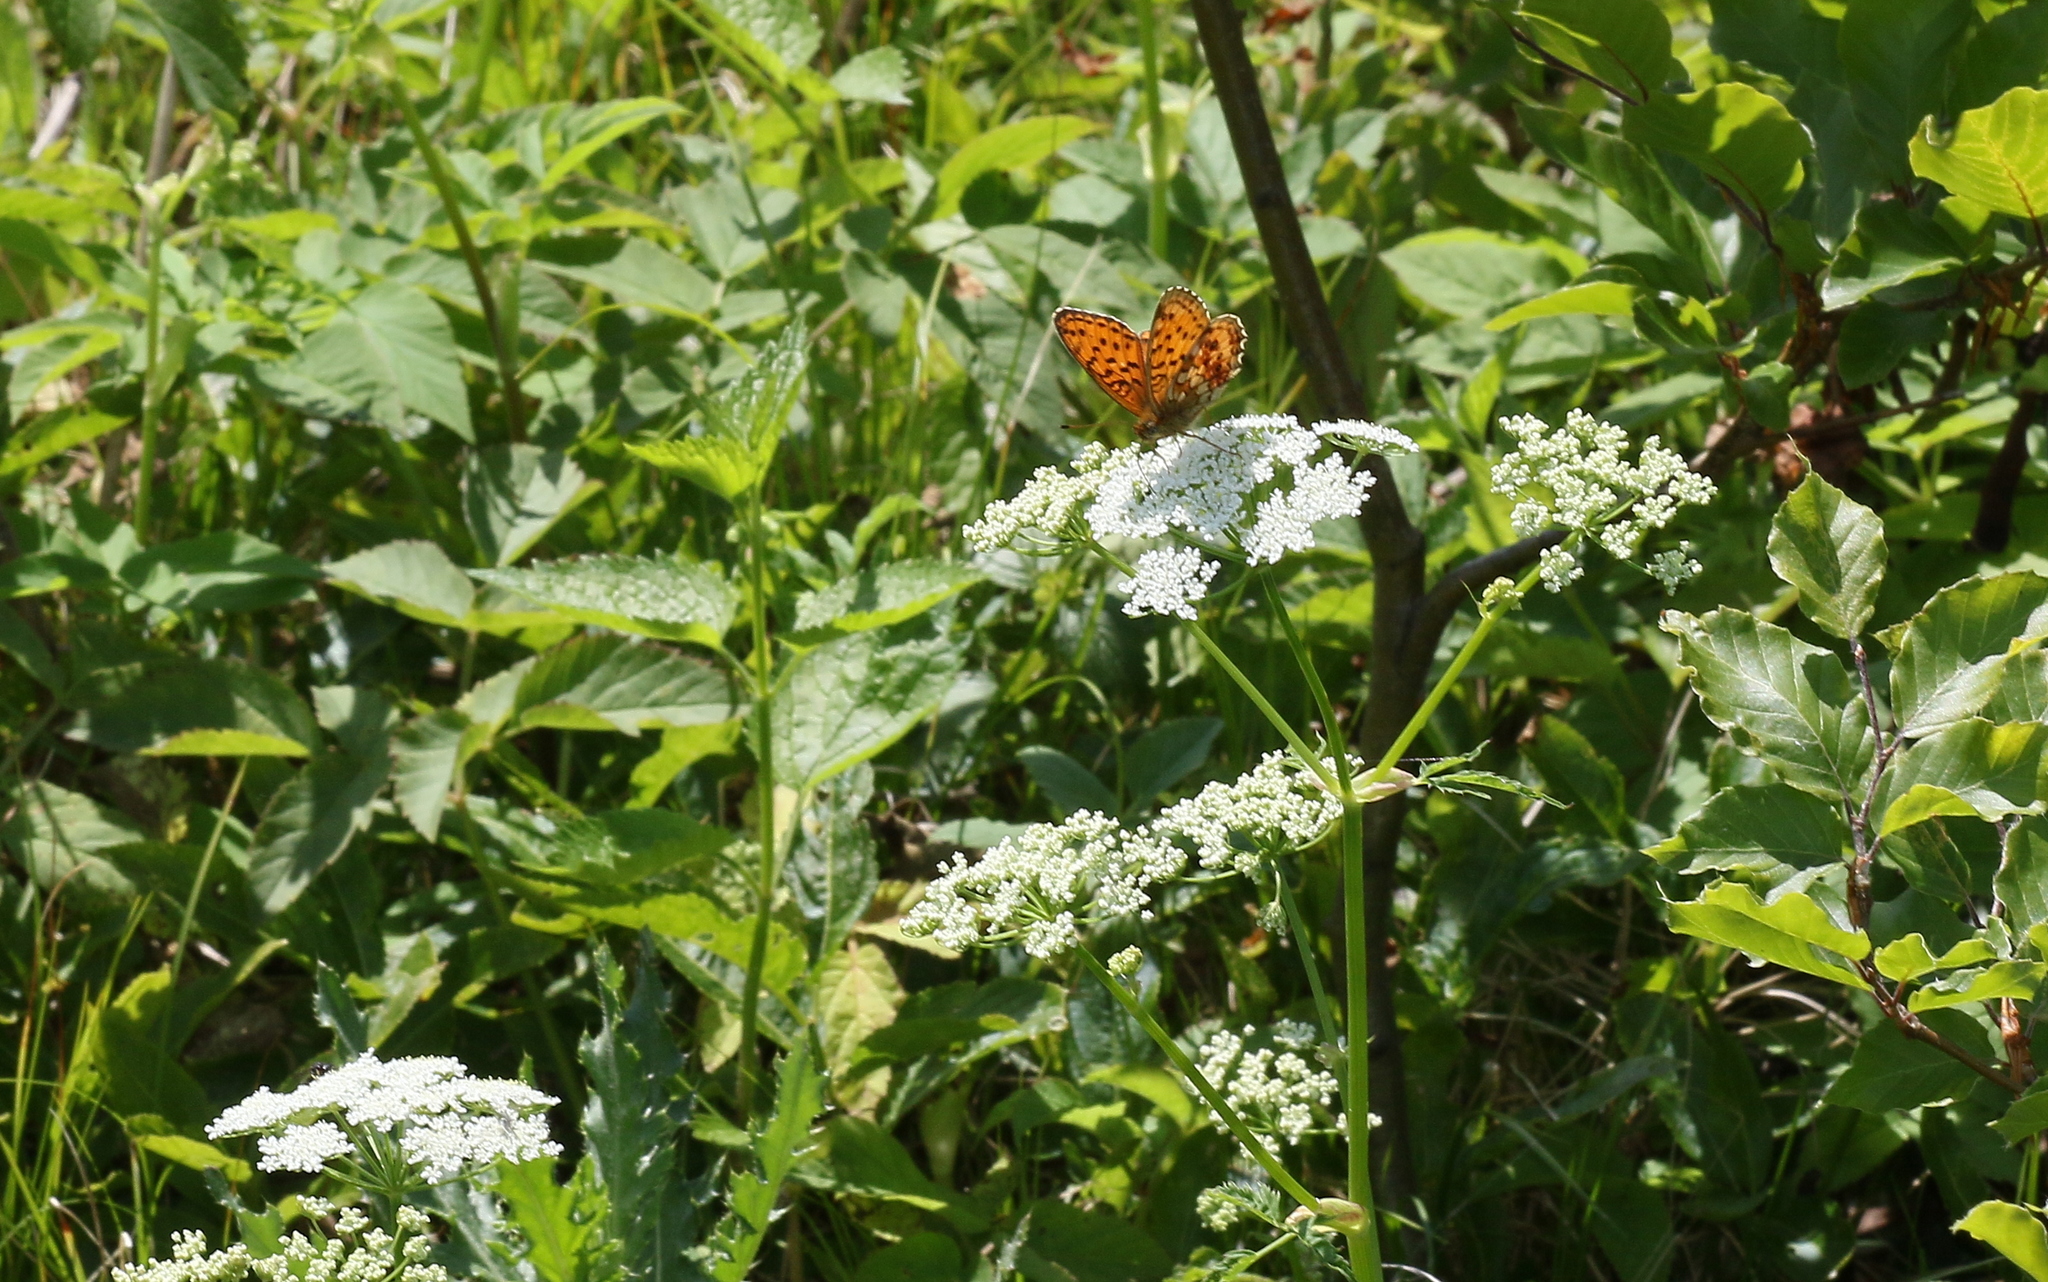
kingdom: Animalia
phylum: Arthropoda
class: Insecta
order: Lepidoptera
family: Nymphalidae
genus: Brenthis
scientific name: Brenthis ino
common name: Lesser marbled fritillary
